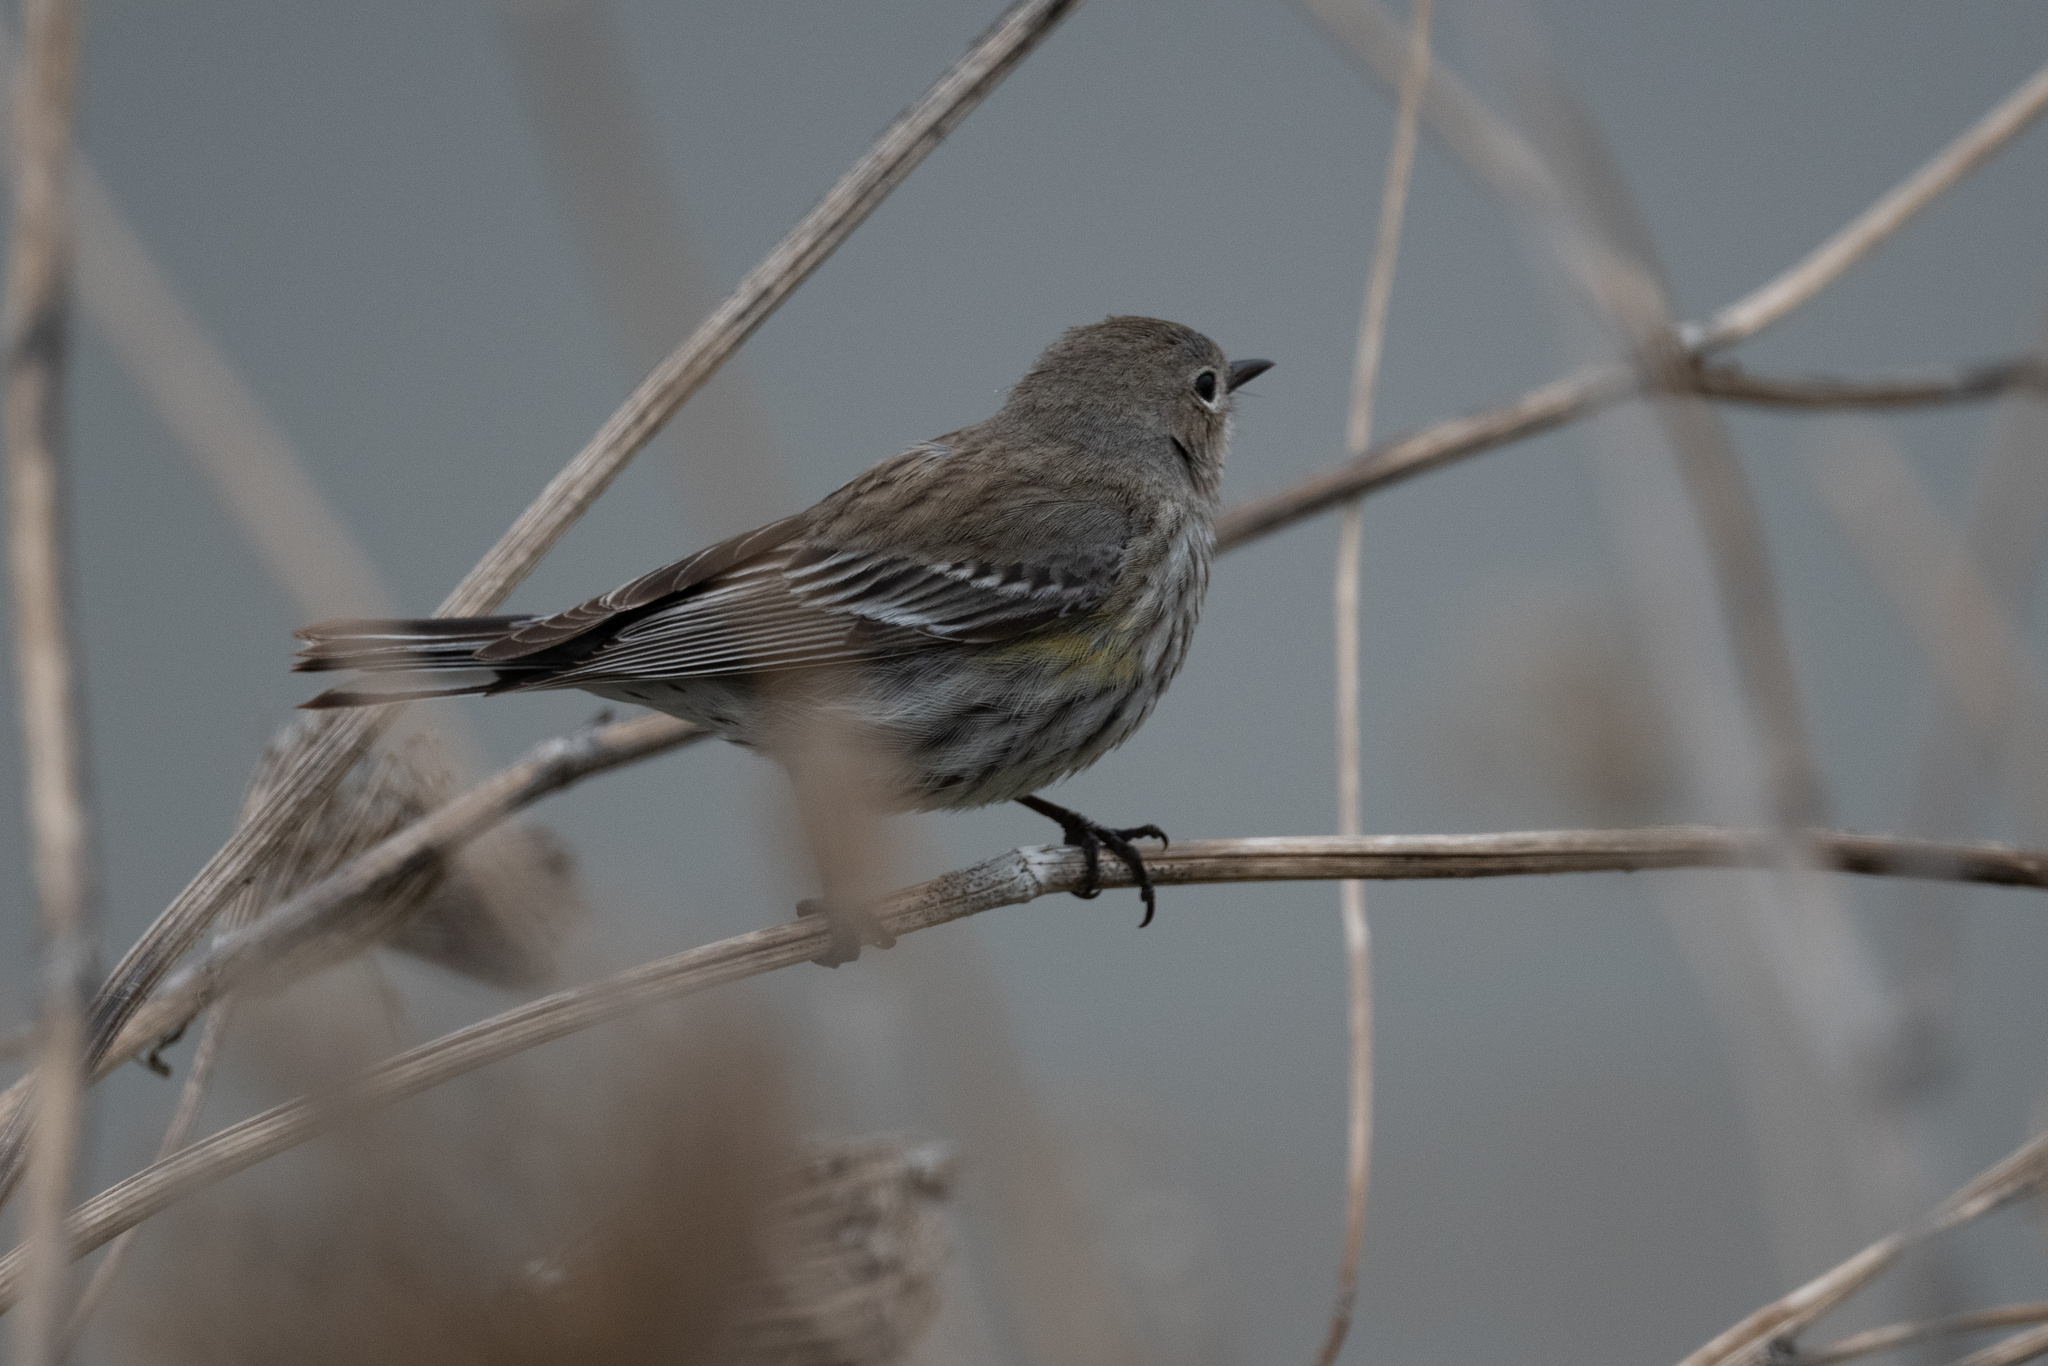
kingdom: Animalia
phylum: Chordata
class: Aves
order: Passeriformes
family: Parulidae
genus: Setophaga
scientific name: Setophaga coronata
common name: Myrtle warbler
